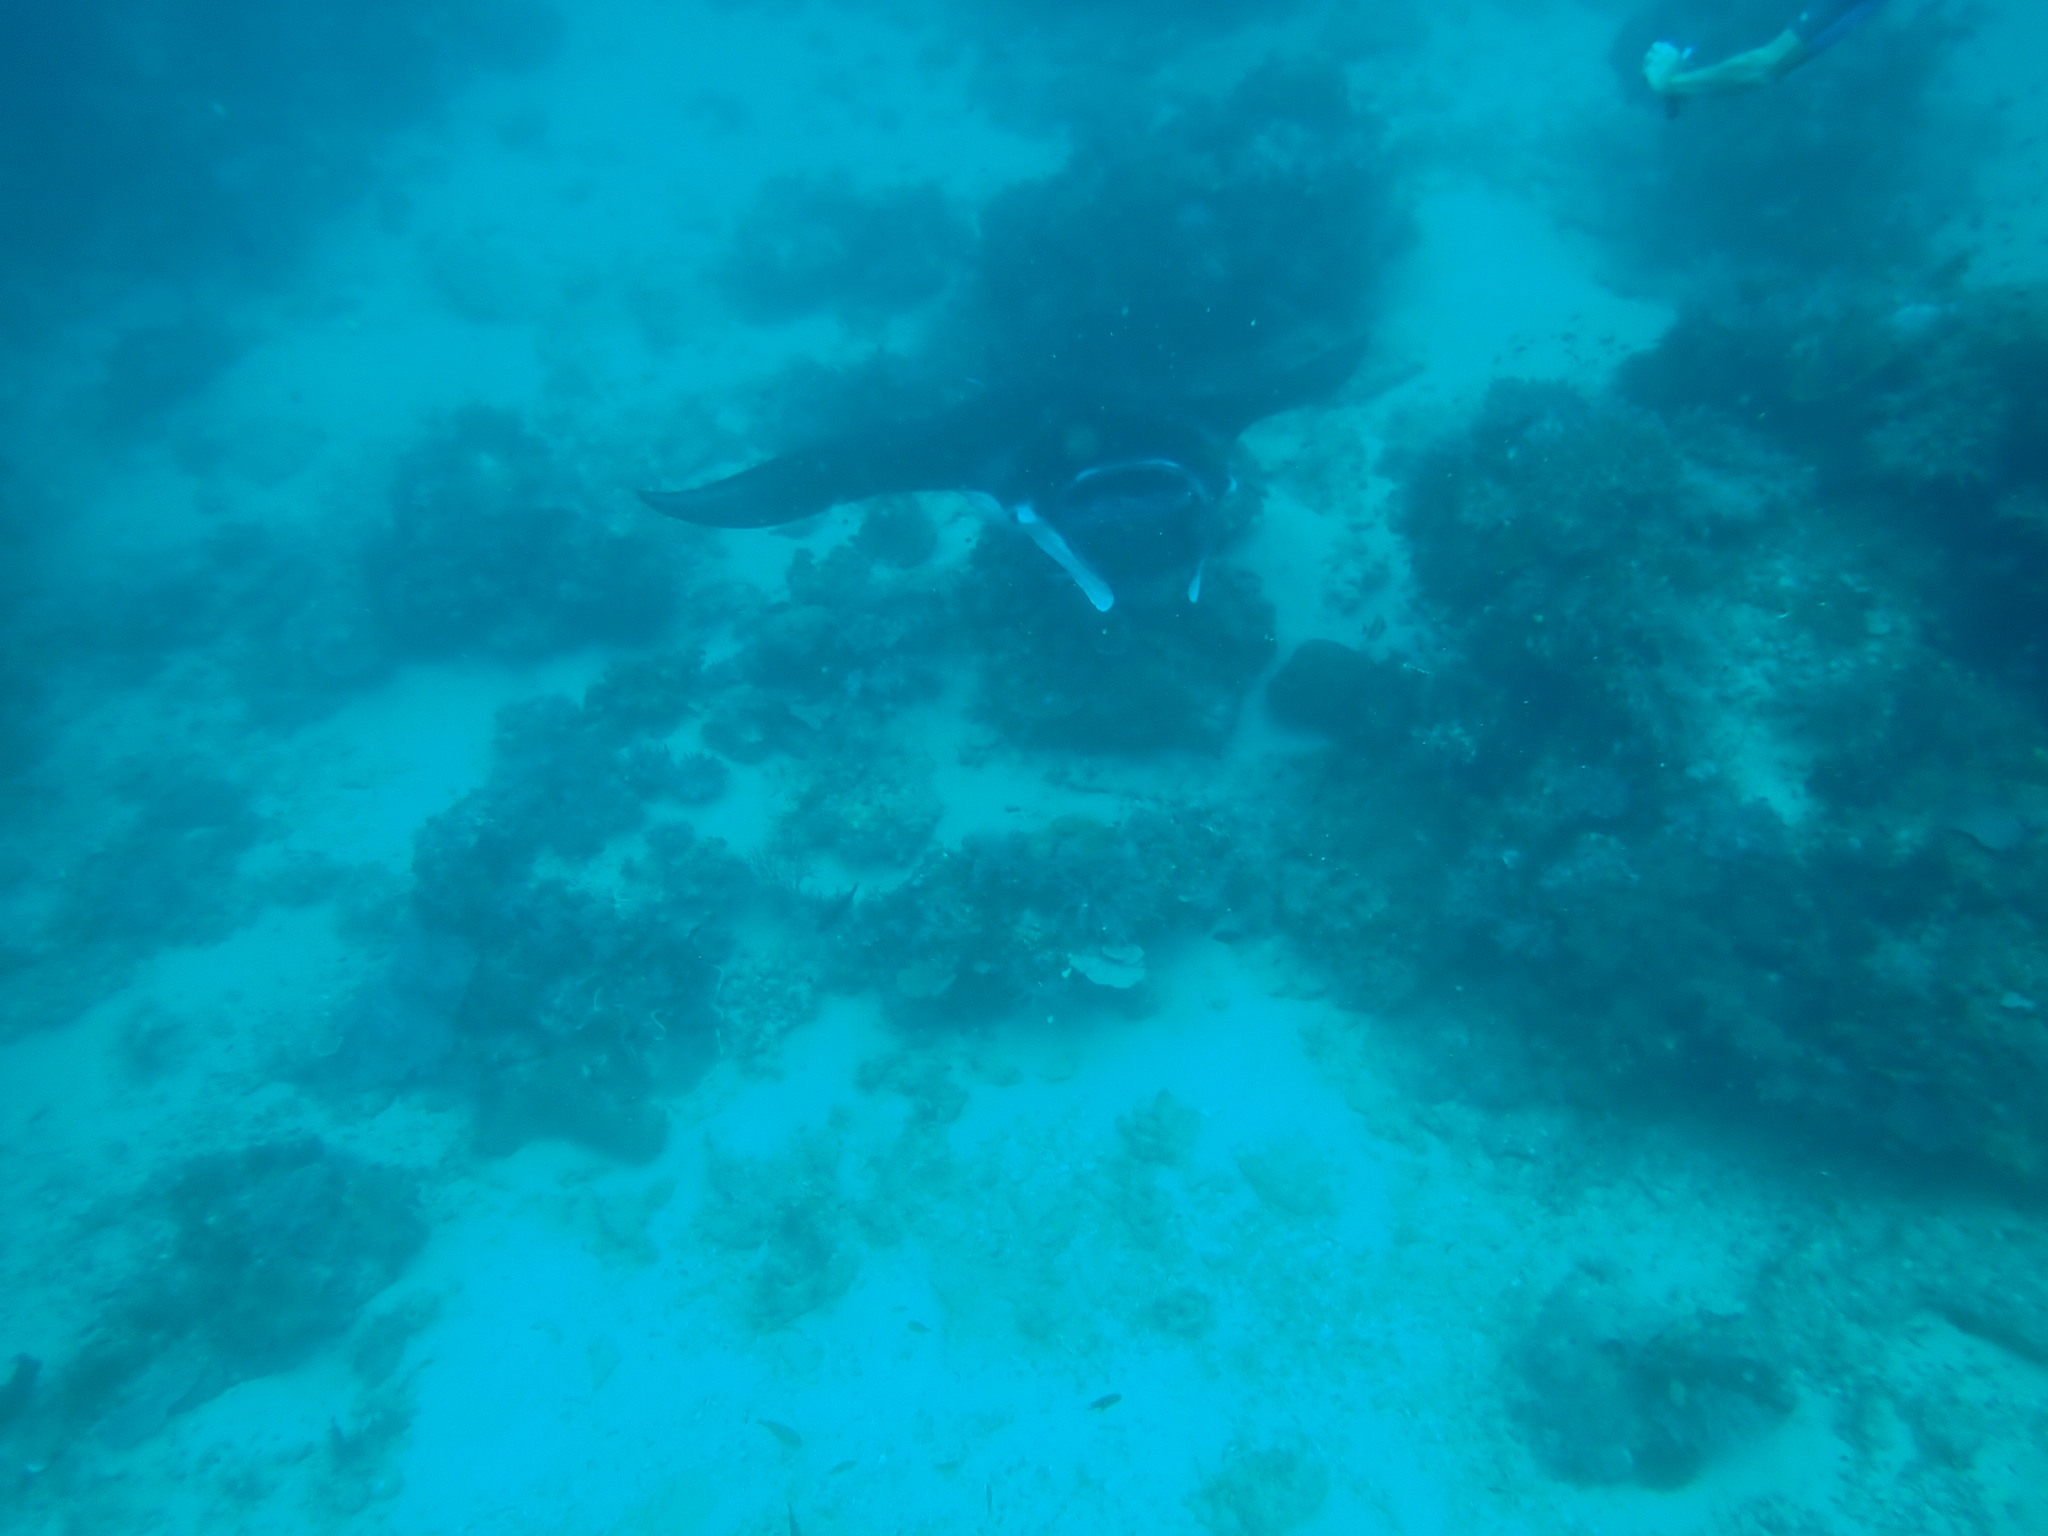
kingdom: Animalia
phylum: Chordata
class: Elasmobranchii
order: Myliobatiformes
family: Myliobatidae
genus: Mobula
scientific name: Mobula alfredi
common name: Reef manta ray
